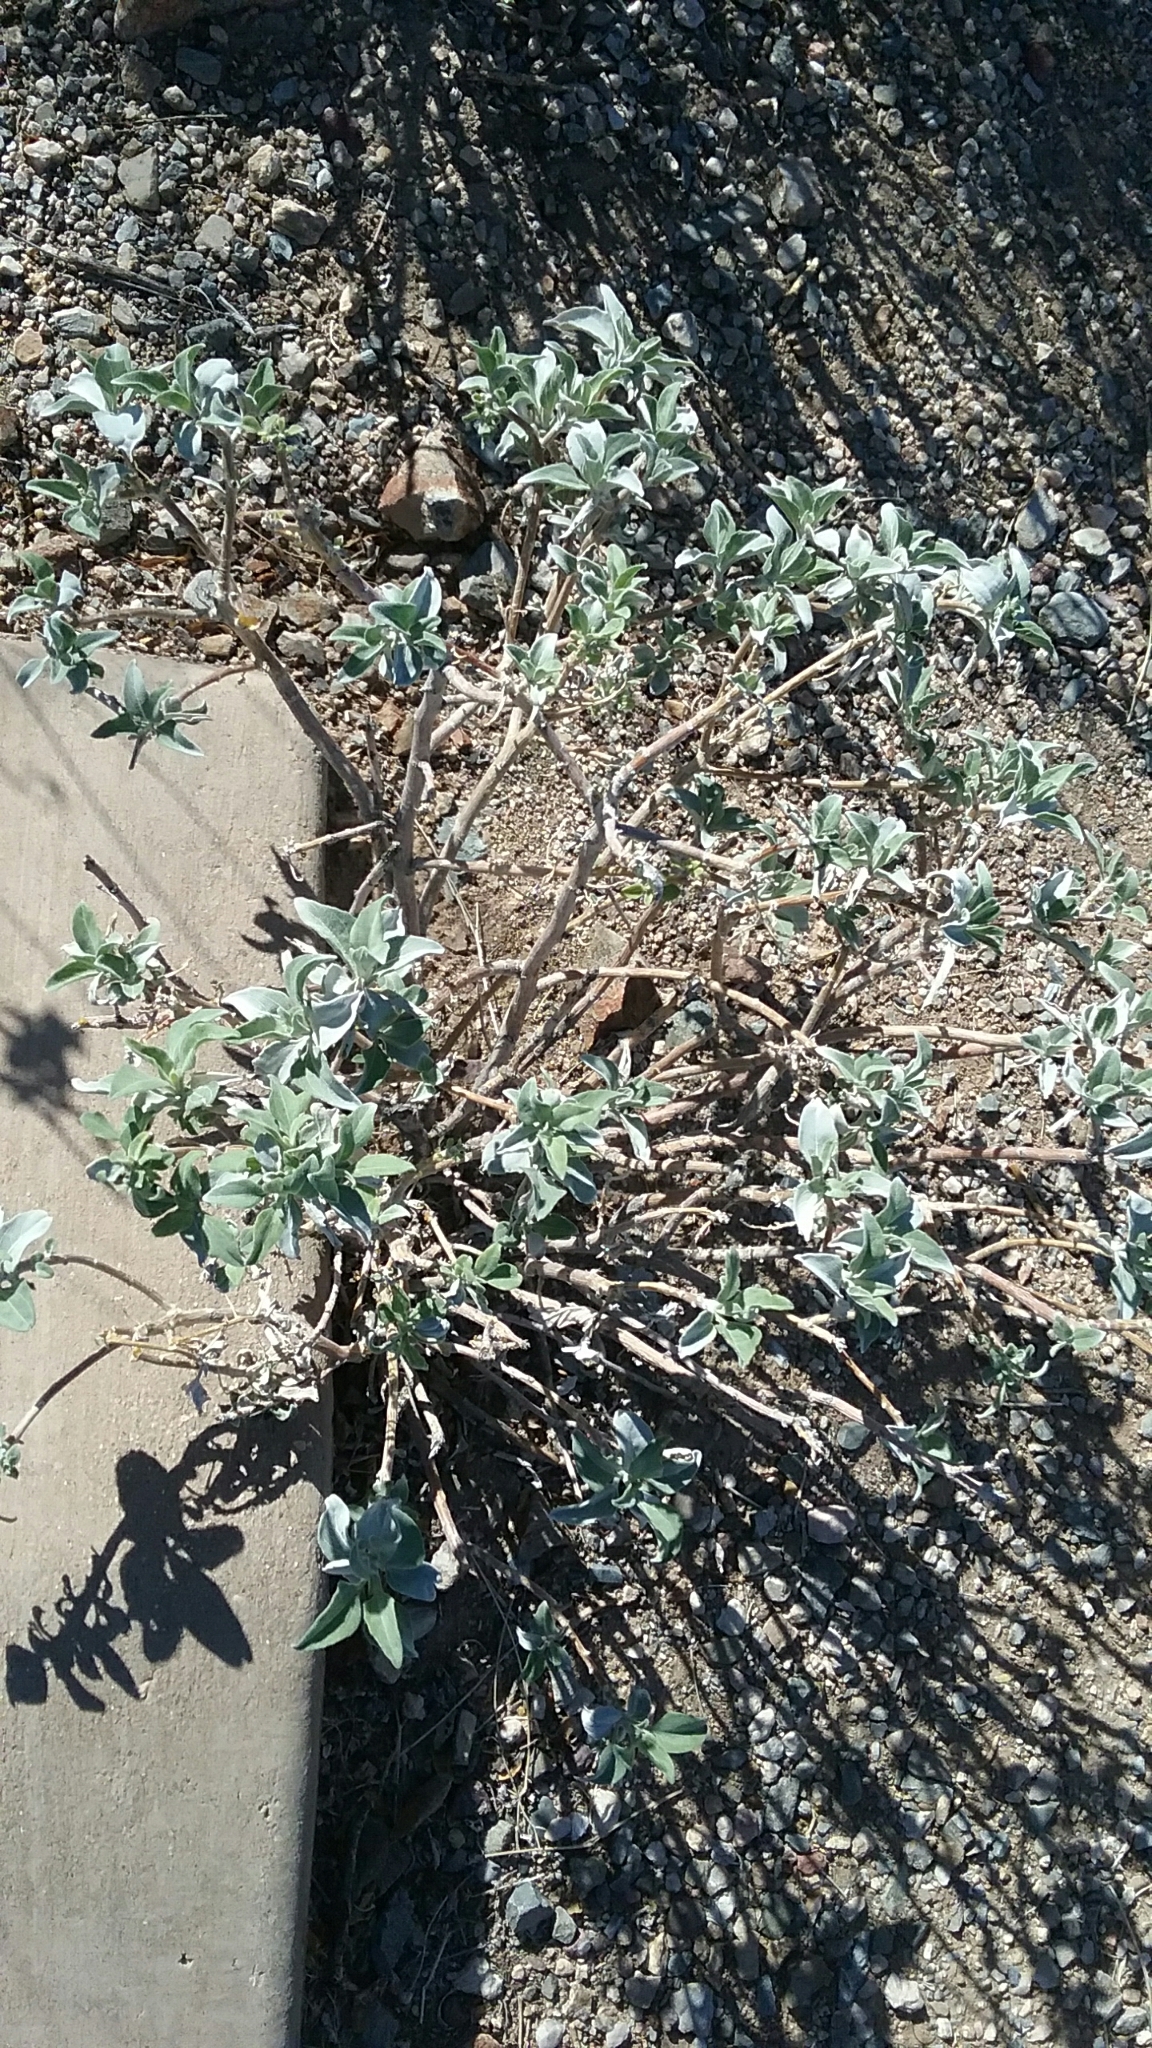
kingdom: Plantae
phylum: Tracheophyta
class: Magnoliopsida
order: Asterales
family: Asteraceae
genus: Encelia
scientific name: Encelia farinosa
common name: Brittlebush
